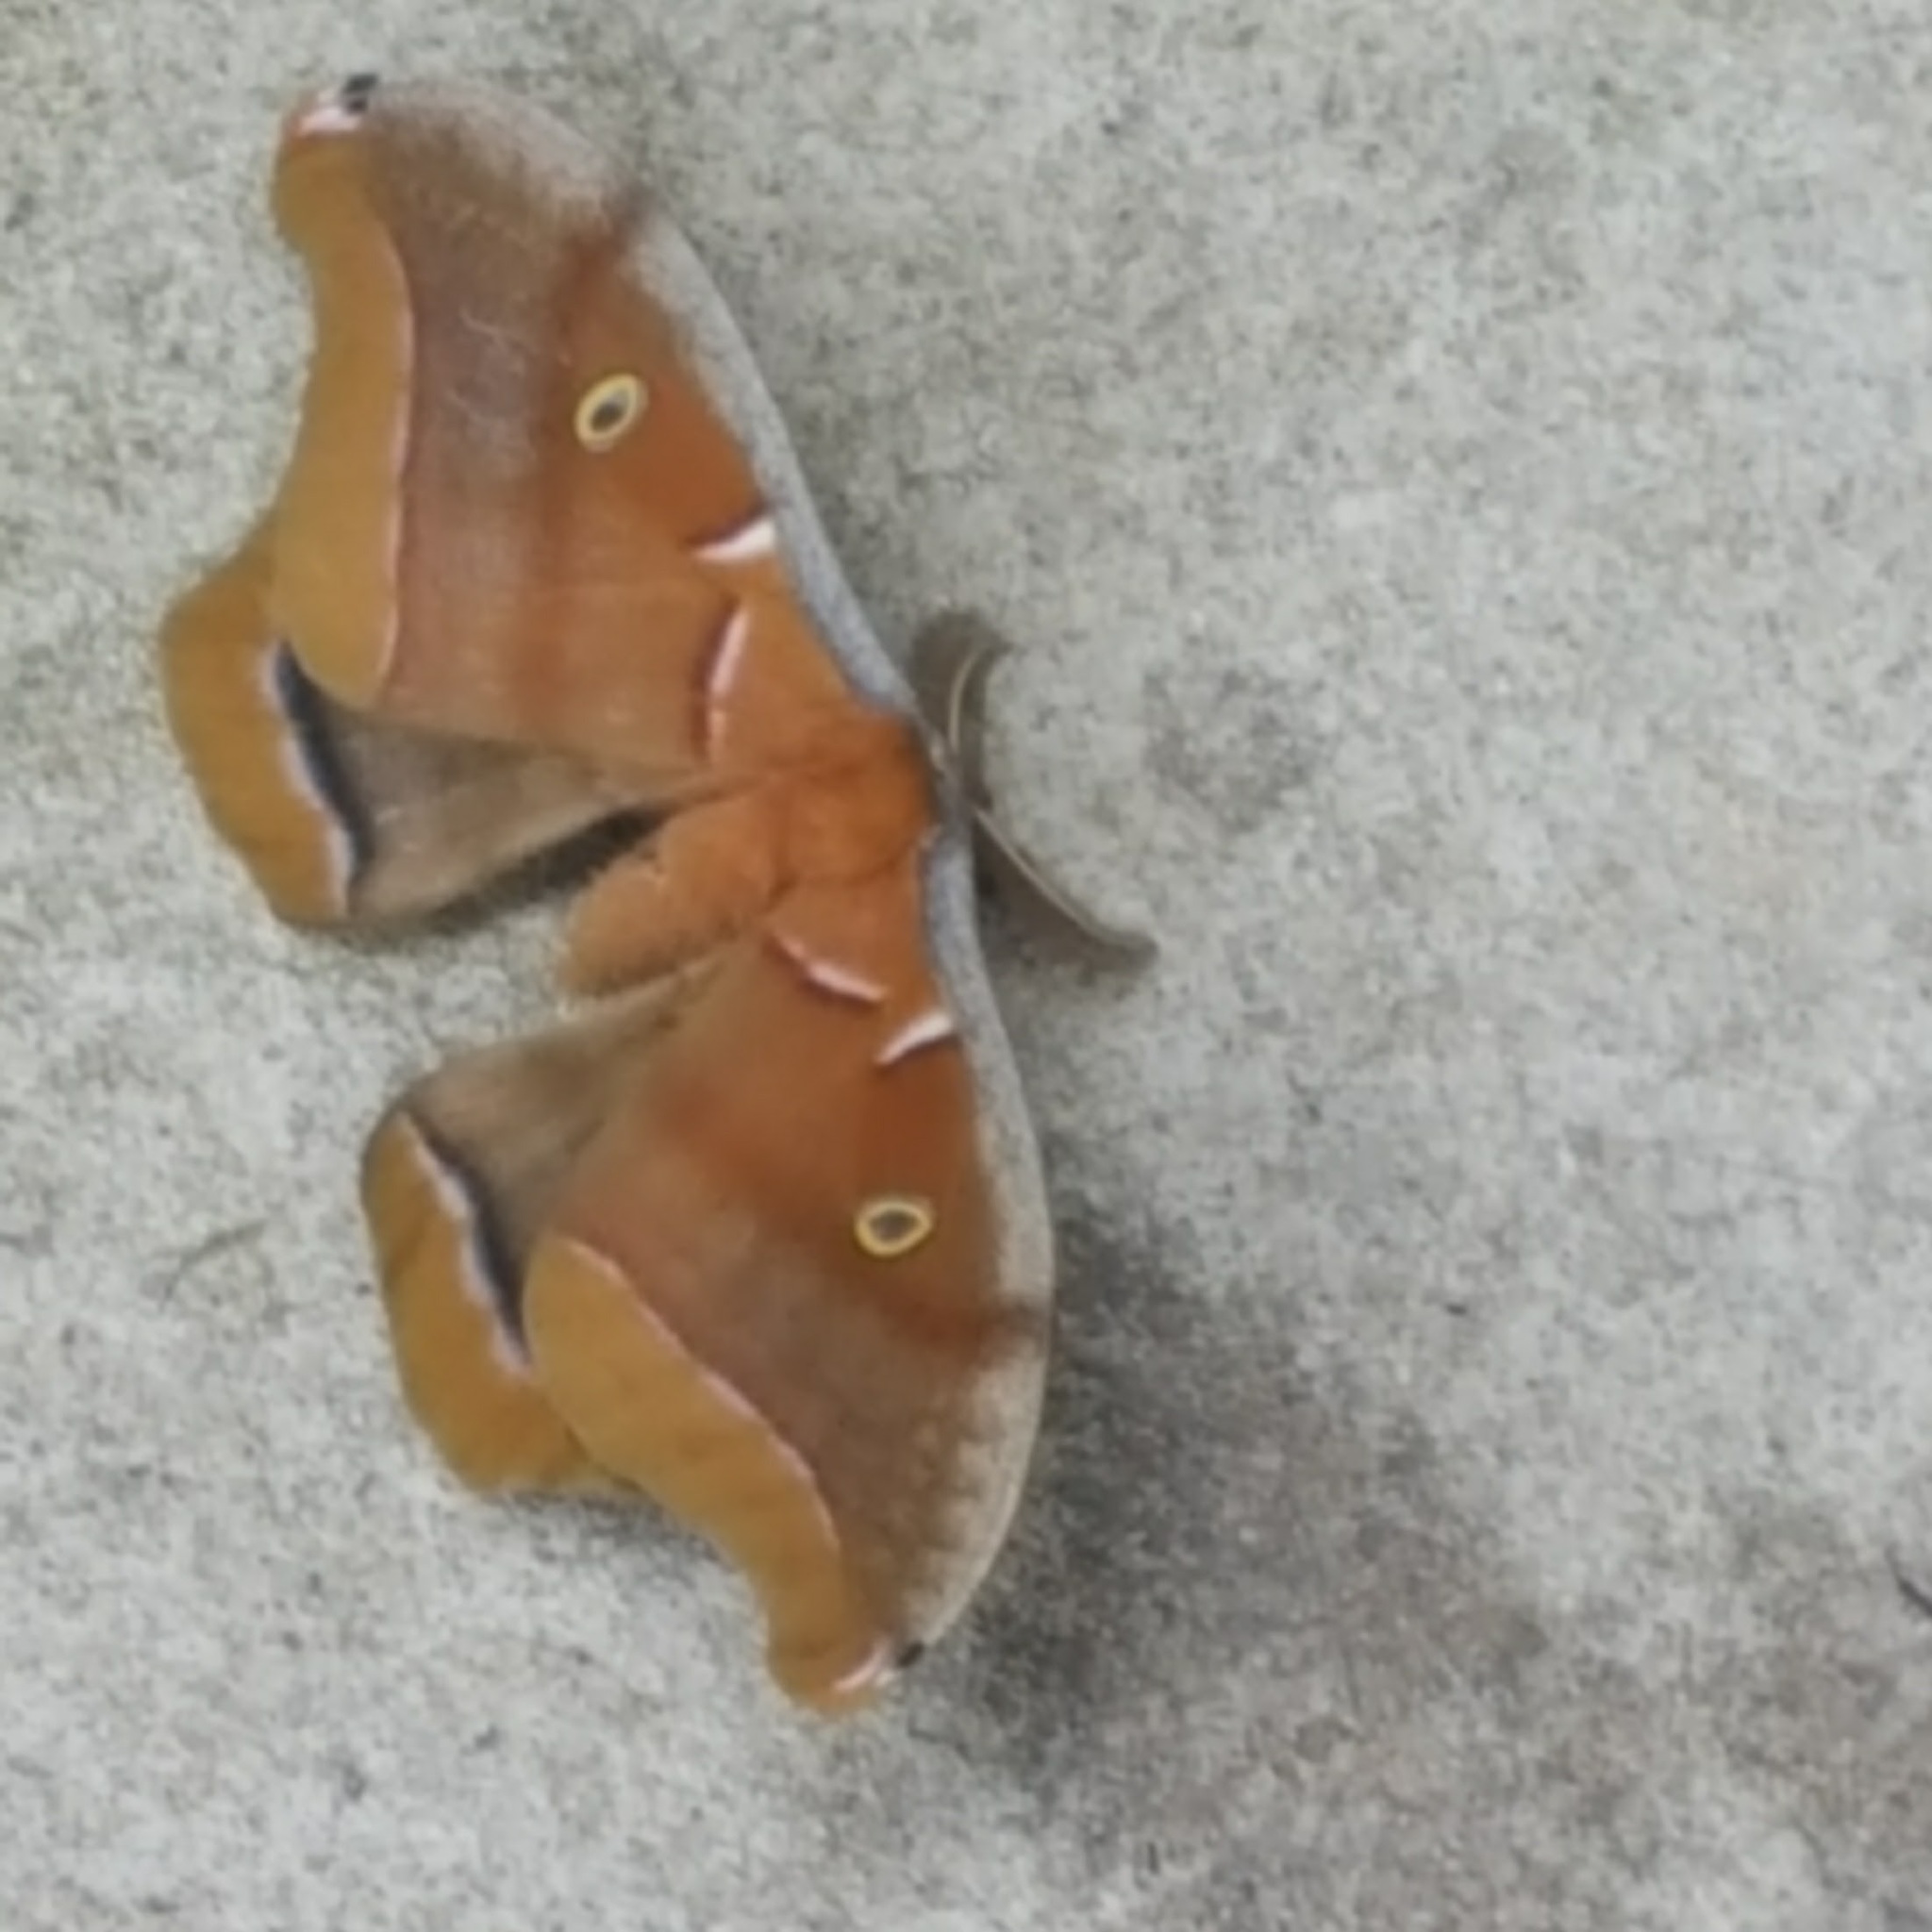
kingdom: Animalia
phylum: Arthropoda
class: Insecta
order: Lepidoptera
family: Saturniidae
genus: Antheraea
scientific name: Antheraea polyphemus
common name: Polyphemus moth
